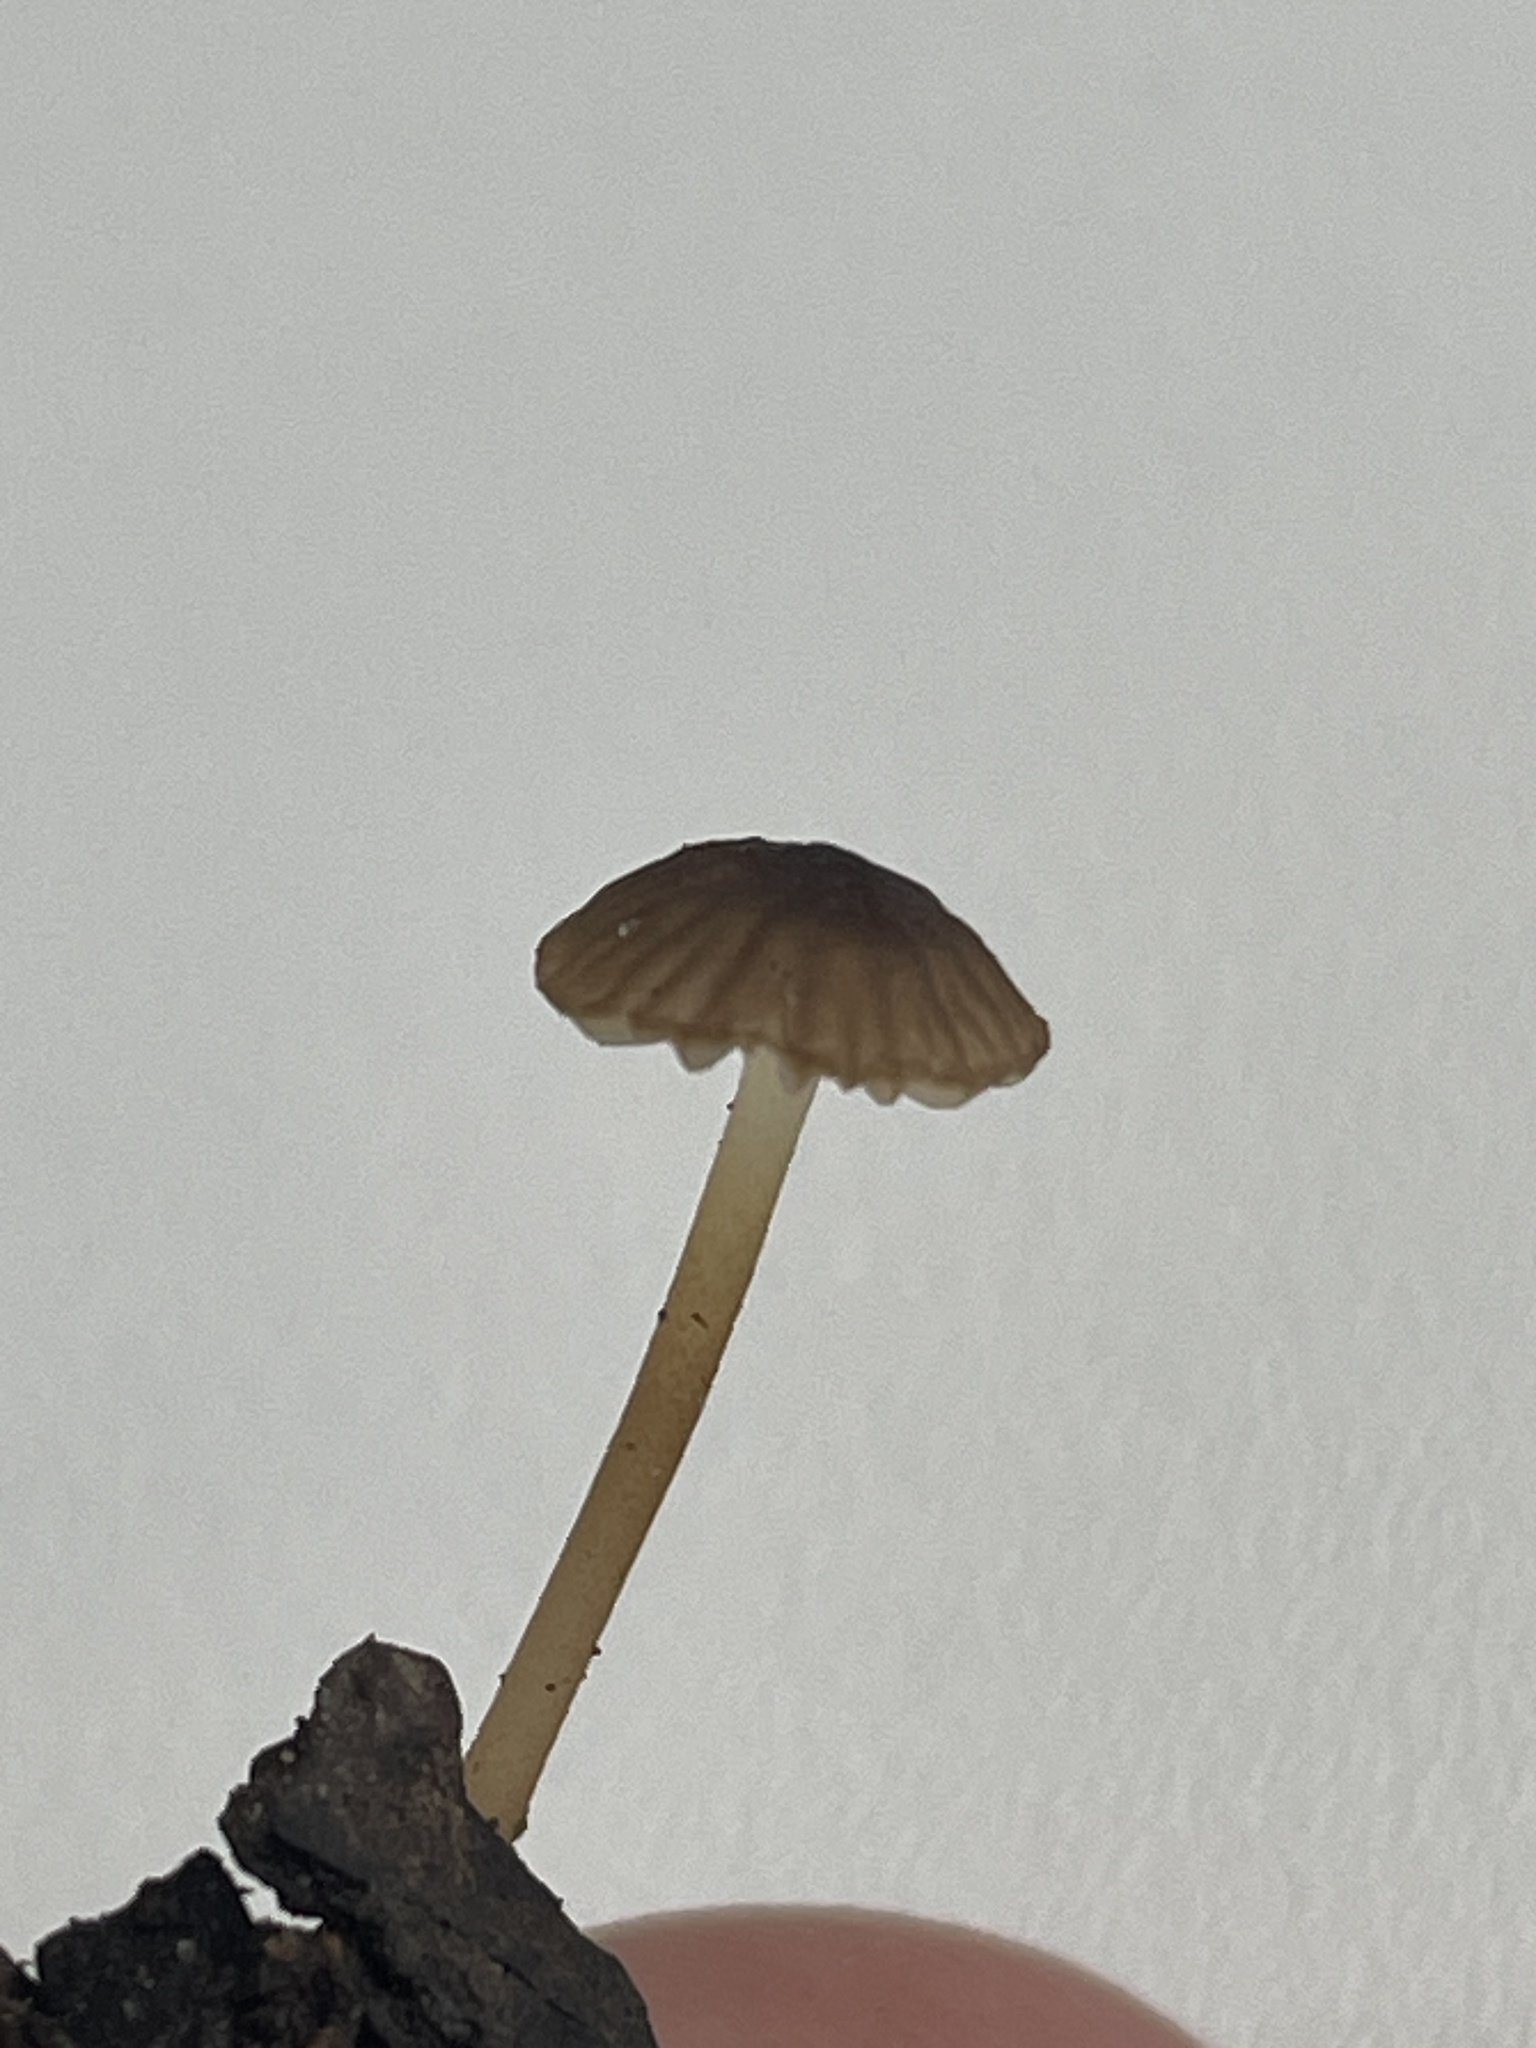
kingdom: Fungi
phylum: Basidiomycota
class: Agaricomycetes
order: Agaricales
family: Porotheleaceae
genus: Phloeomana
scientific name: Phloeomana
